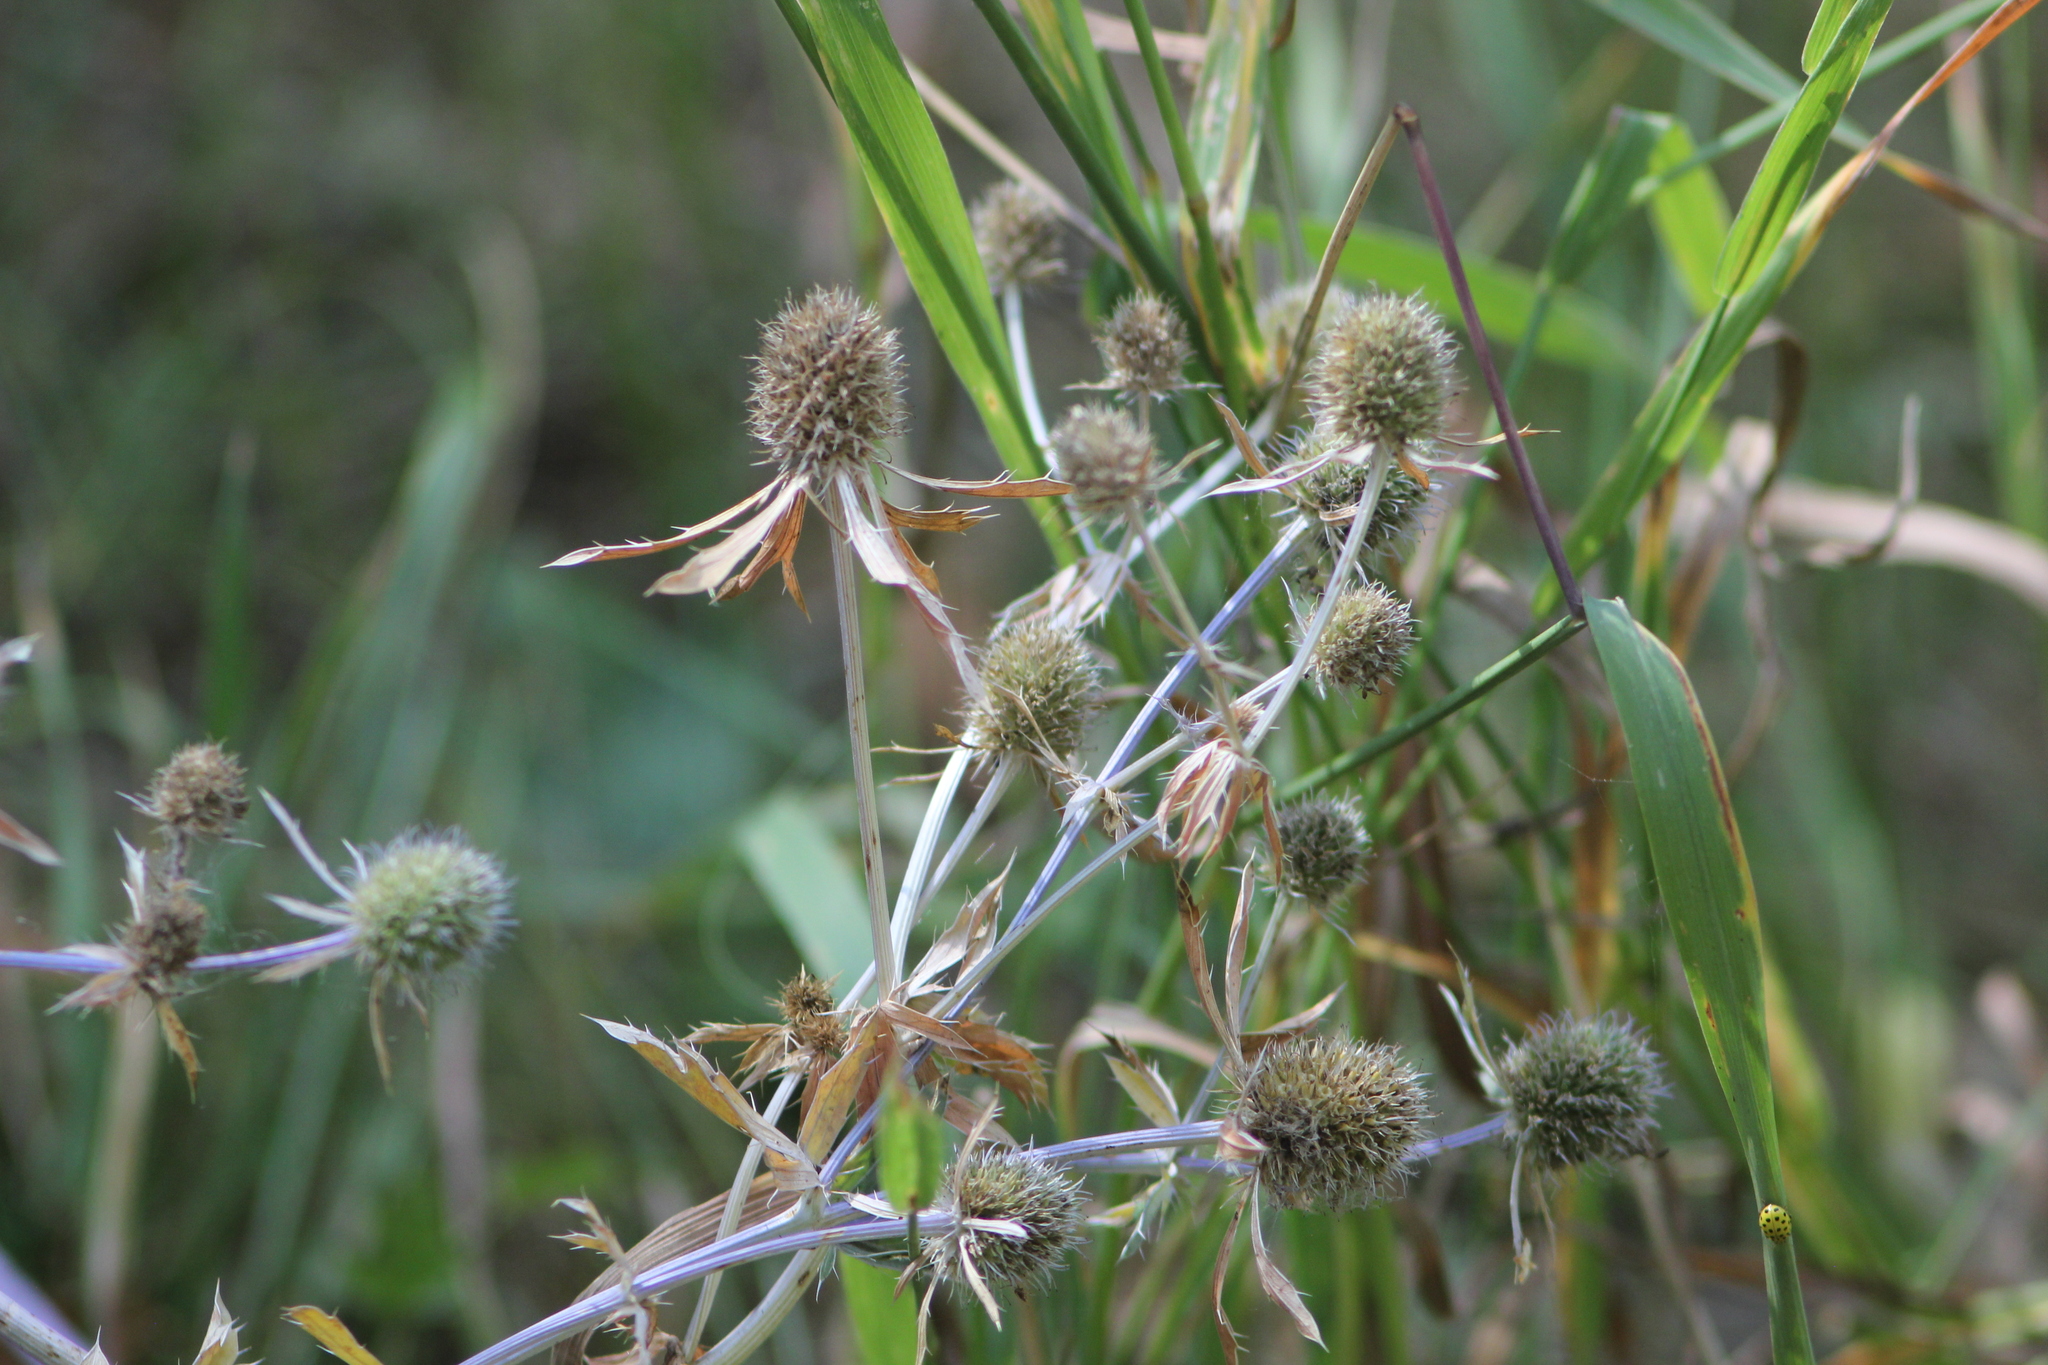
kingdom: Plantae
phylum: Tracheophyta
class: Magnoliopsida
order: Apiales
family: Apiaceae
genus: Eryngium
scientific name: Eryngium planum
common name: Blue eryngo
